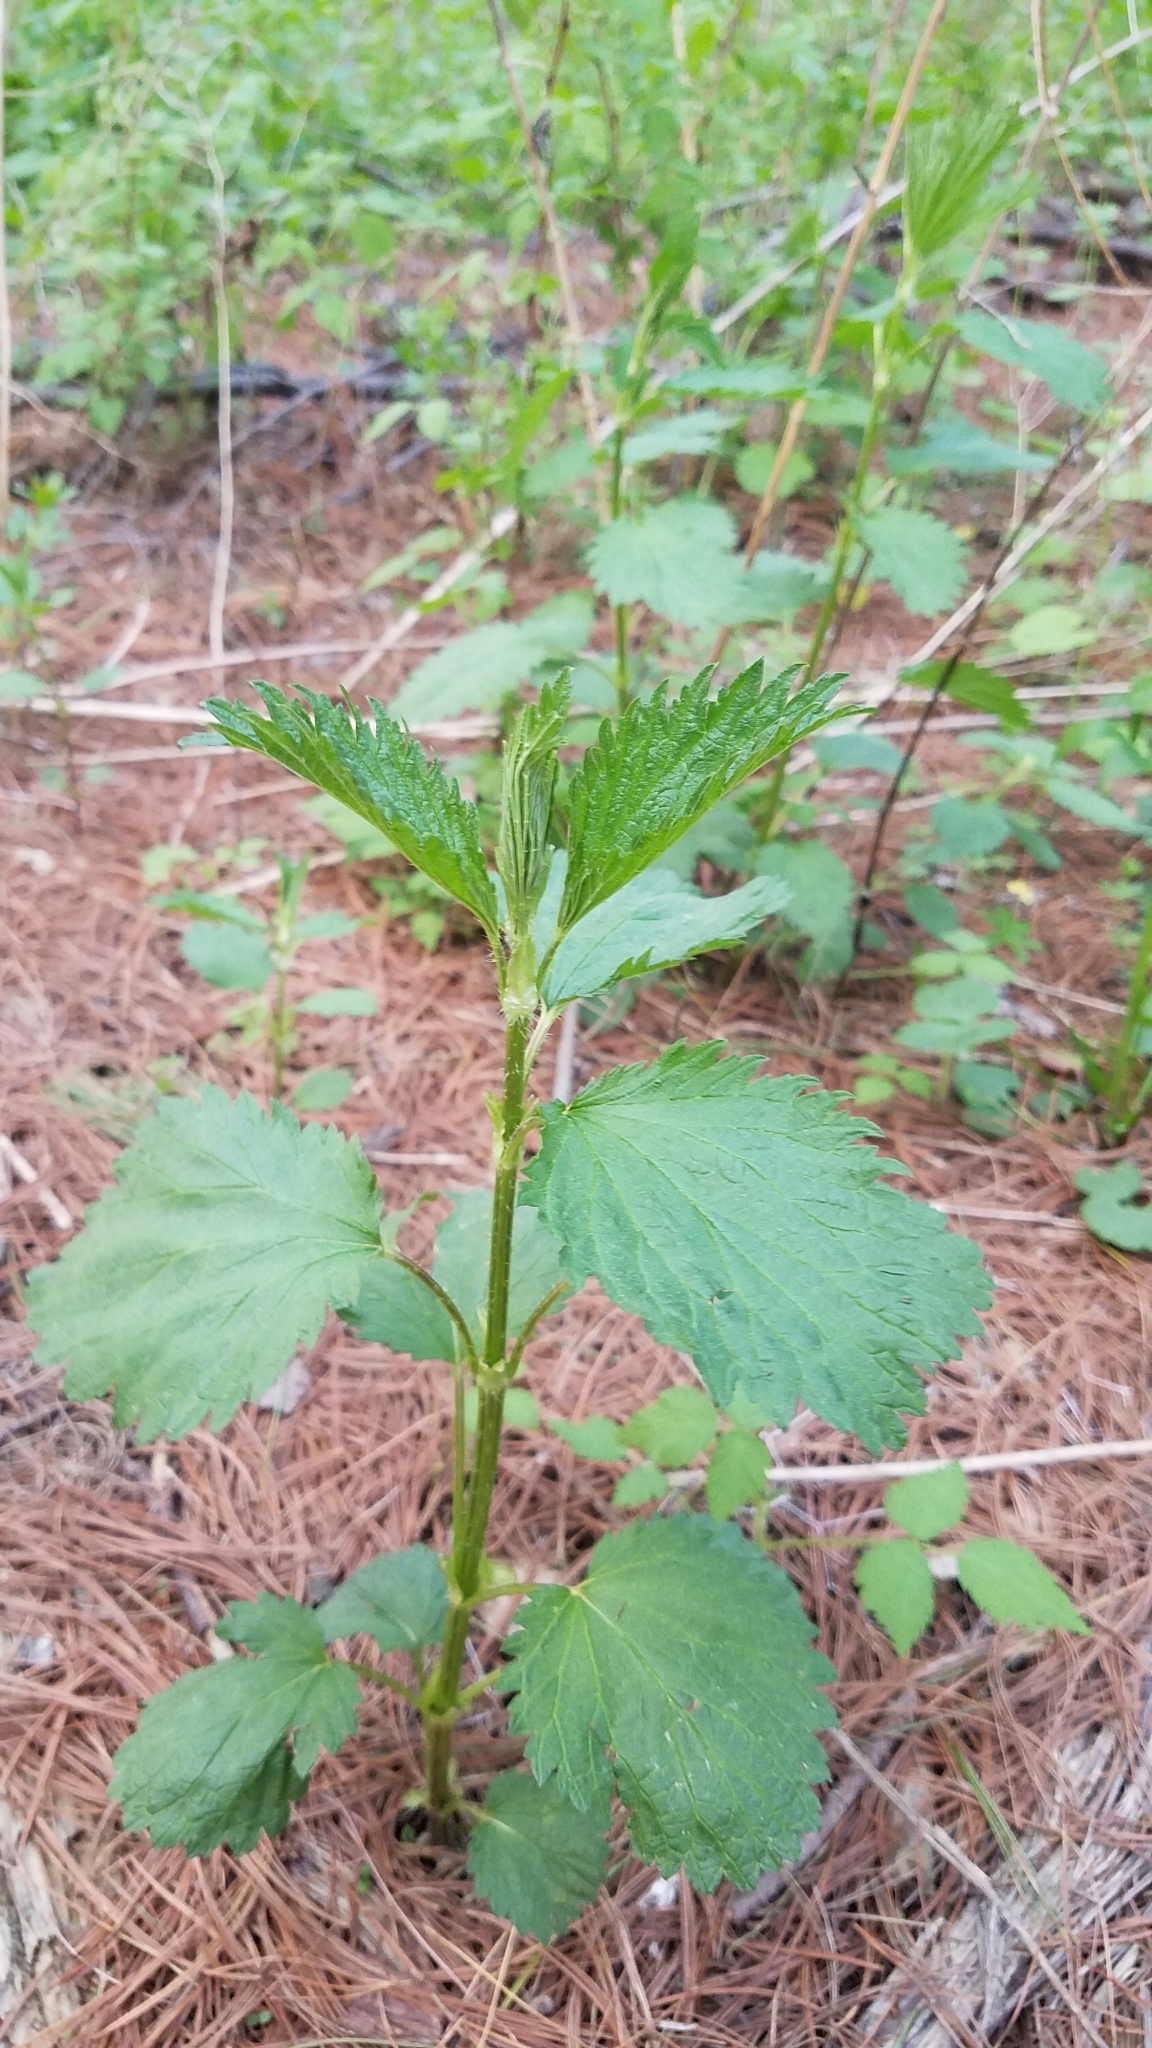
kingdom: Plantae
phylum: Tracheophyta
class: Magnoliopsida
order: Rosales
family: Urticaceae
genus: Urtica
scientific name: Urtica gracilis
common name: Slender stinging nettle
